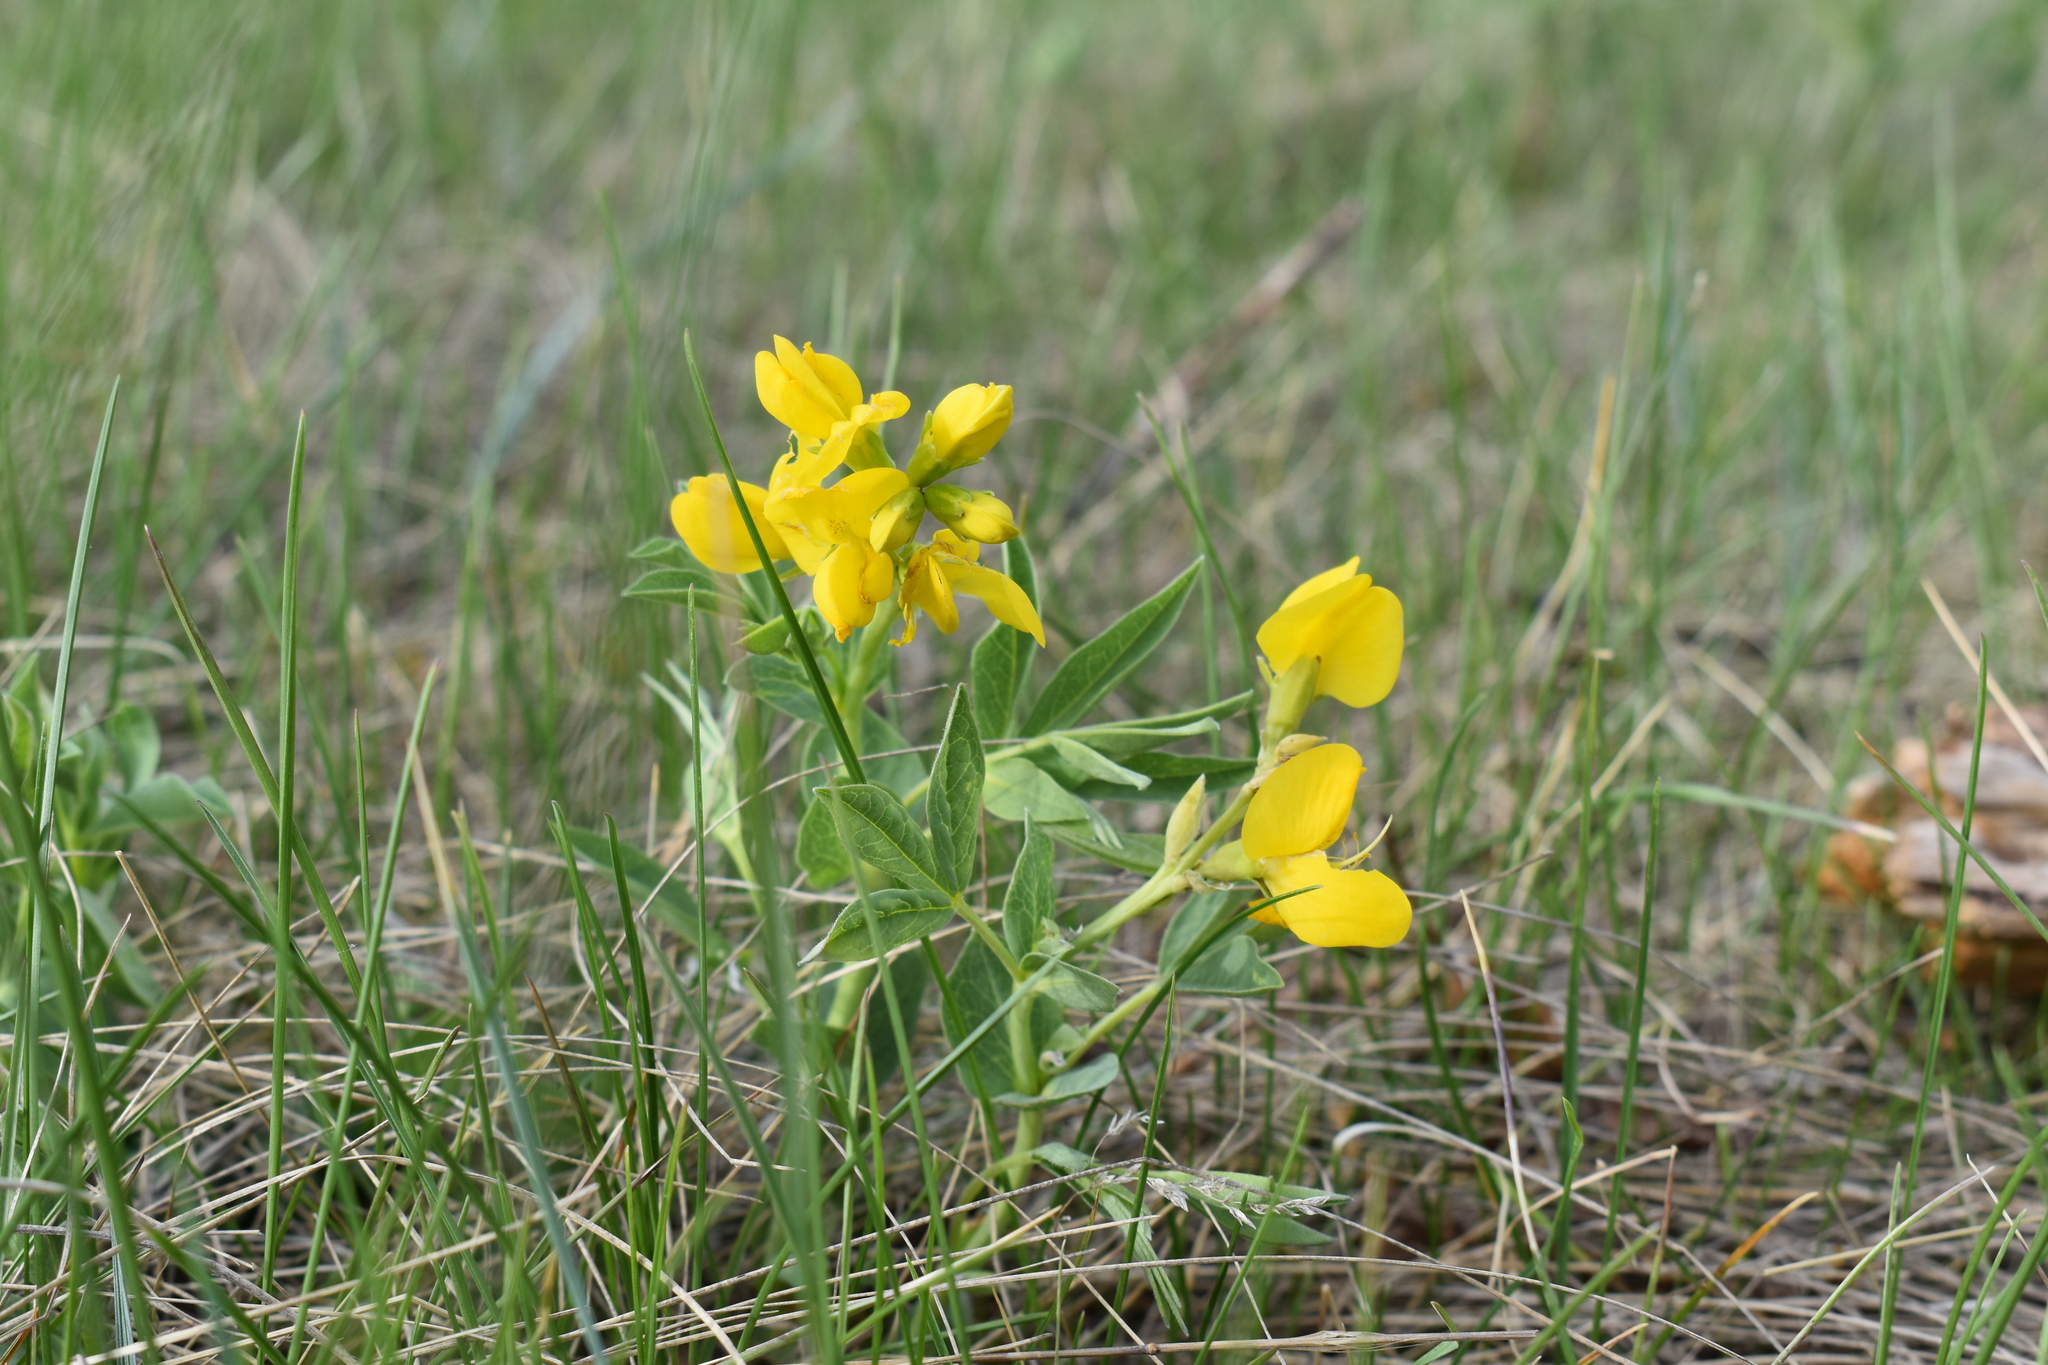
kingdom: Plantae
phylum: Tracheophyta
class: Magnoliopsida
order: Fabales
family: Fabaceae
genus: Thermopsis
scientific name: Thermopsis rhombifolia
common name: Circle-pod-pea
